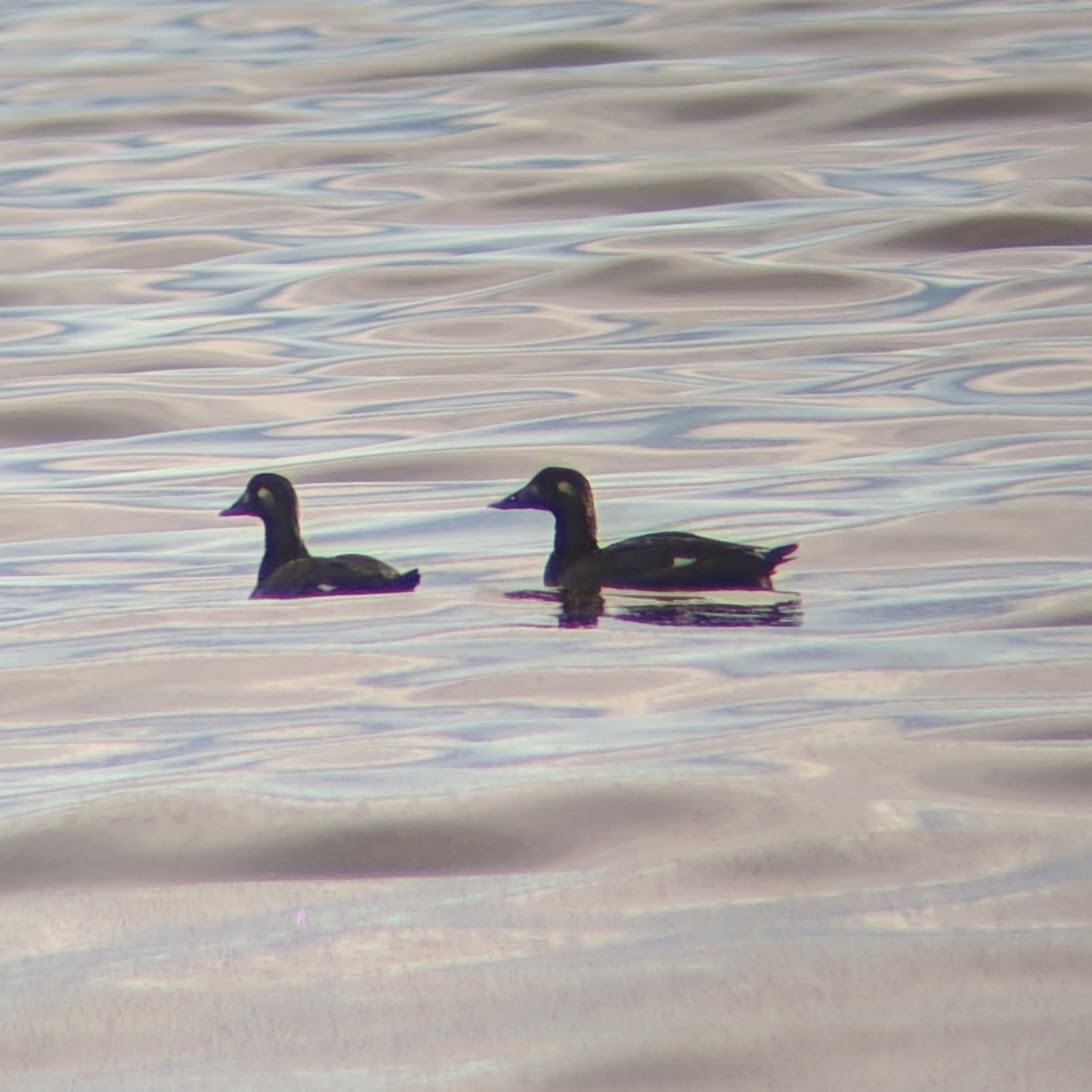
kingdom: Animalia
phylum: Chordata
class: Aves
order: Anseriformes
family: Anatidae
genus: Melanitta
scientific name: Melanitta deglandi
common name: White-winged scoter
